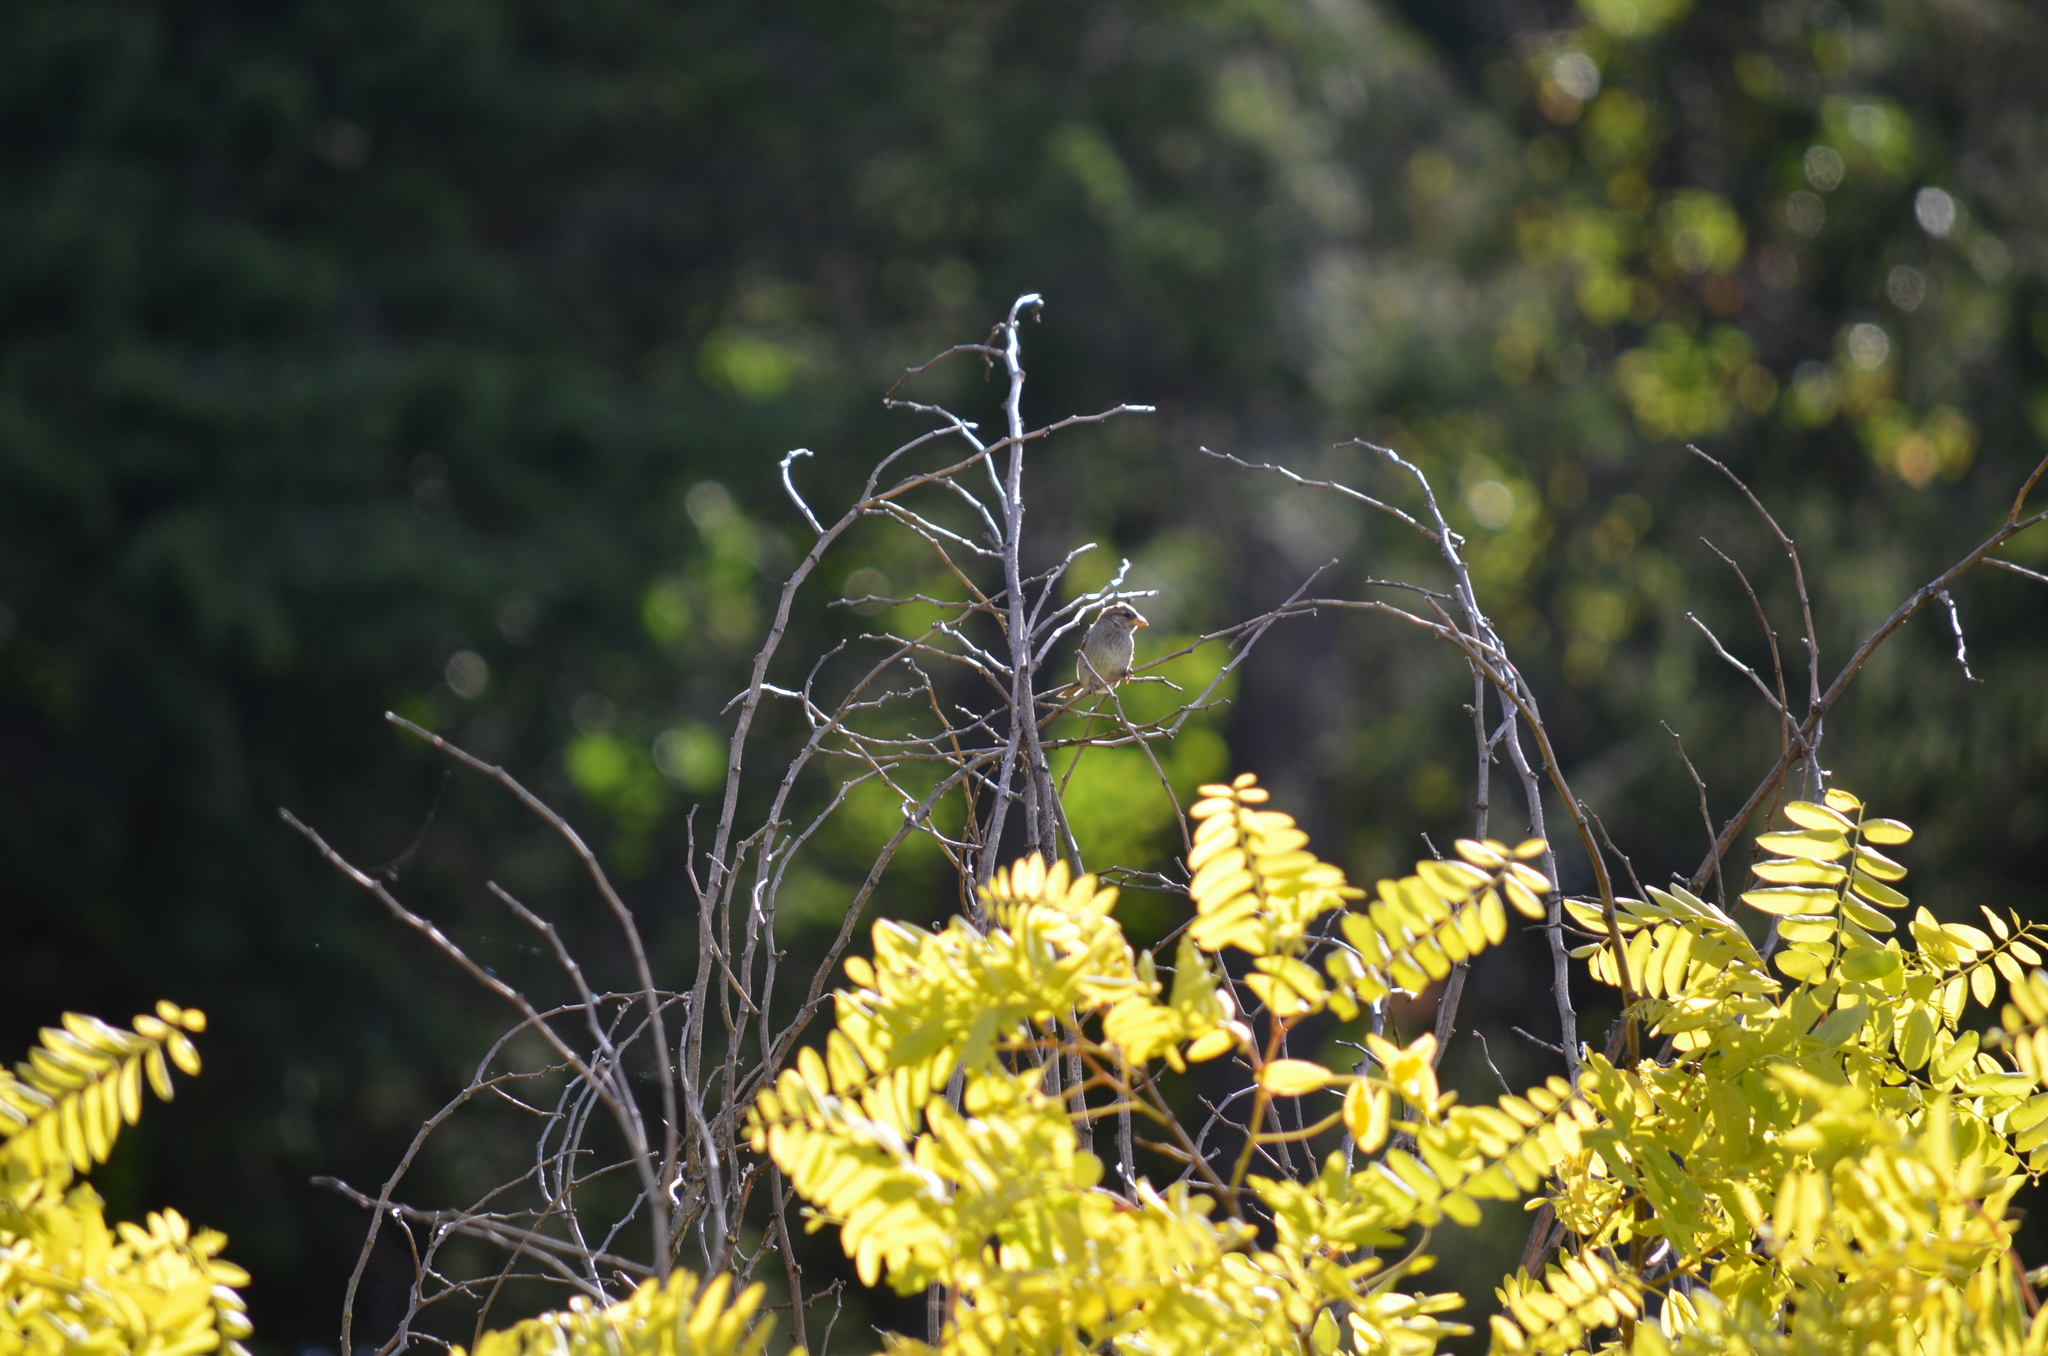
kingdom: Animalia
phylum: Chordata
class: Aves
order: Passeriformes
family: Passeridae
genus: Passer
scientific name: Passer domesticus
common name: House sparrow
